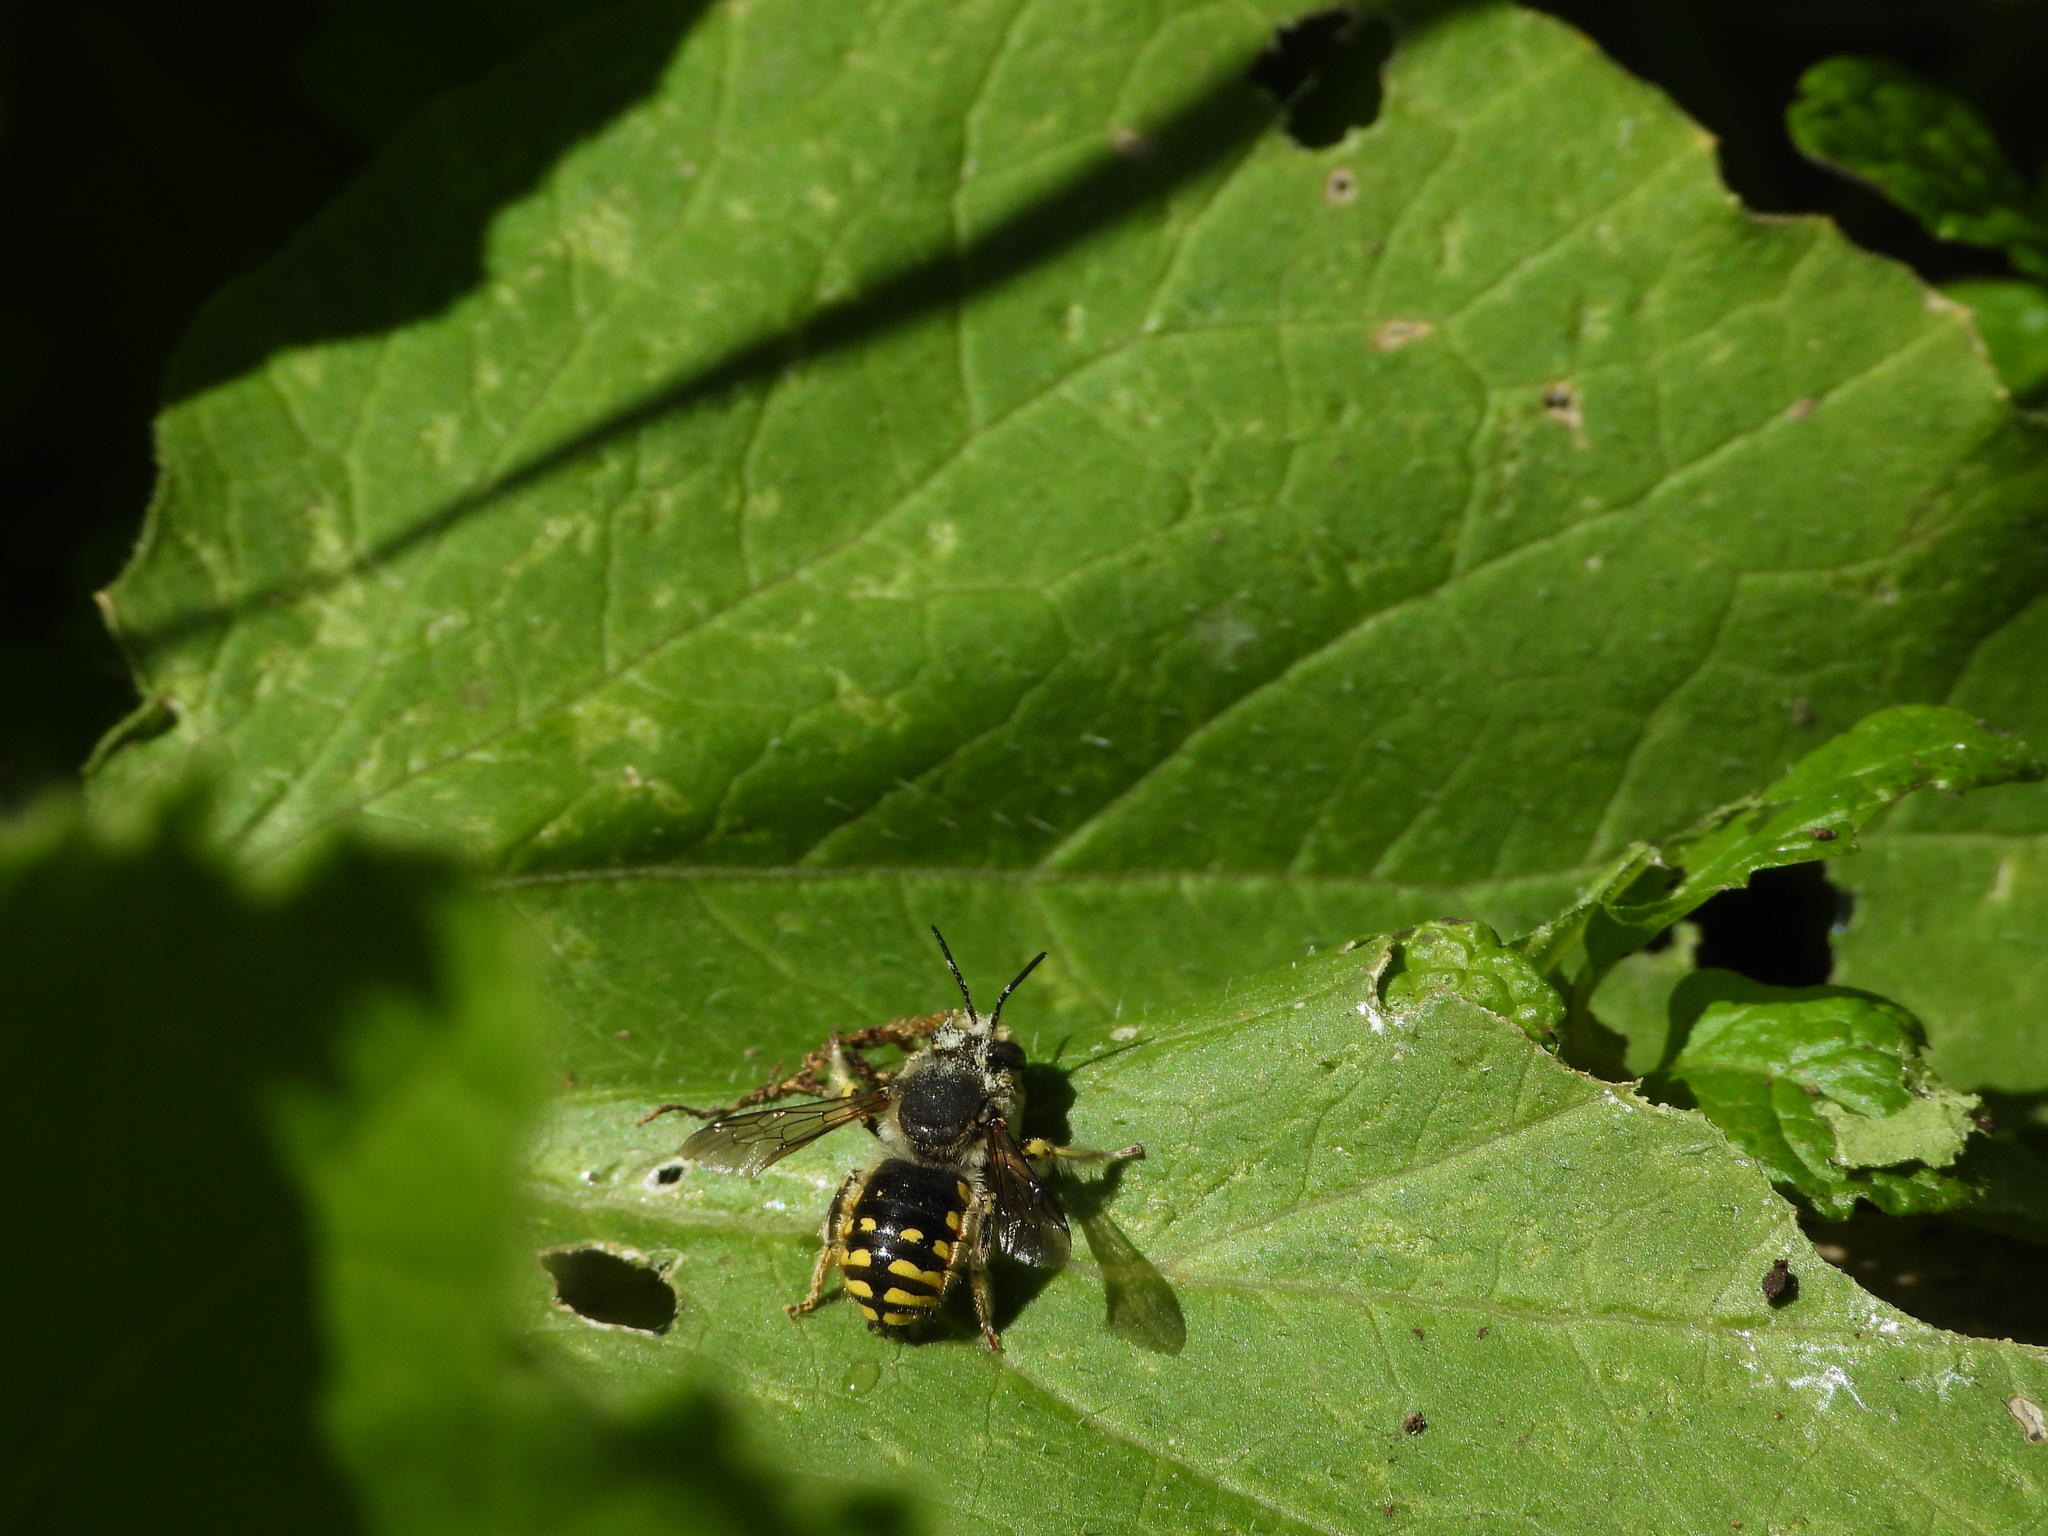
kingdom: Animalia
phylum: Arthropoda
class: Insecta
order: Hymenoptera
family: Megachilidae
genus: Anthidium
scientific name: Anthidium manicatum
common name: Wool carder bee
